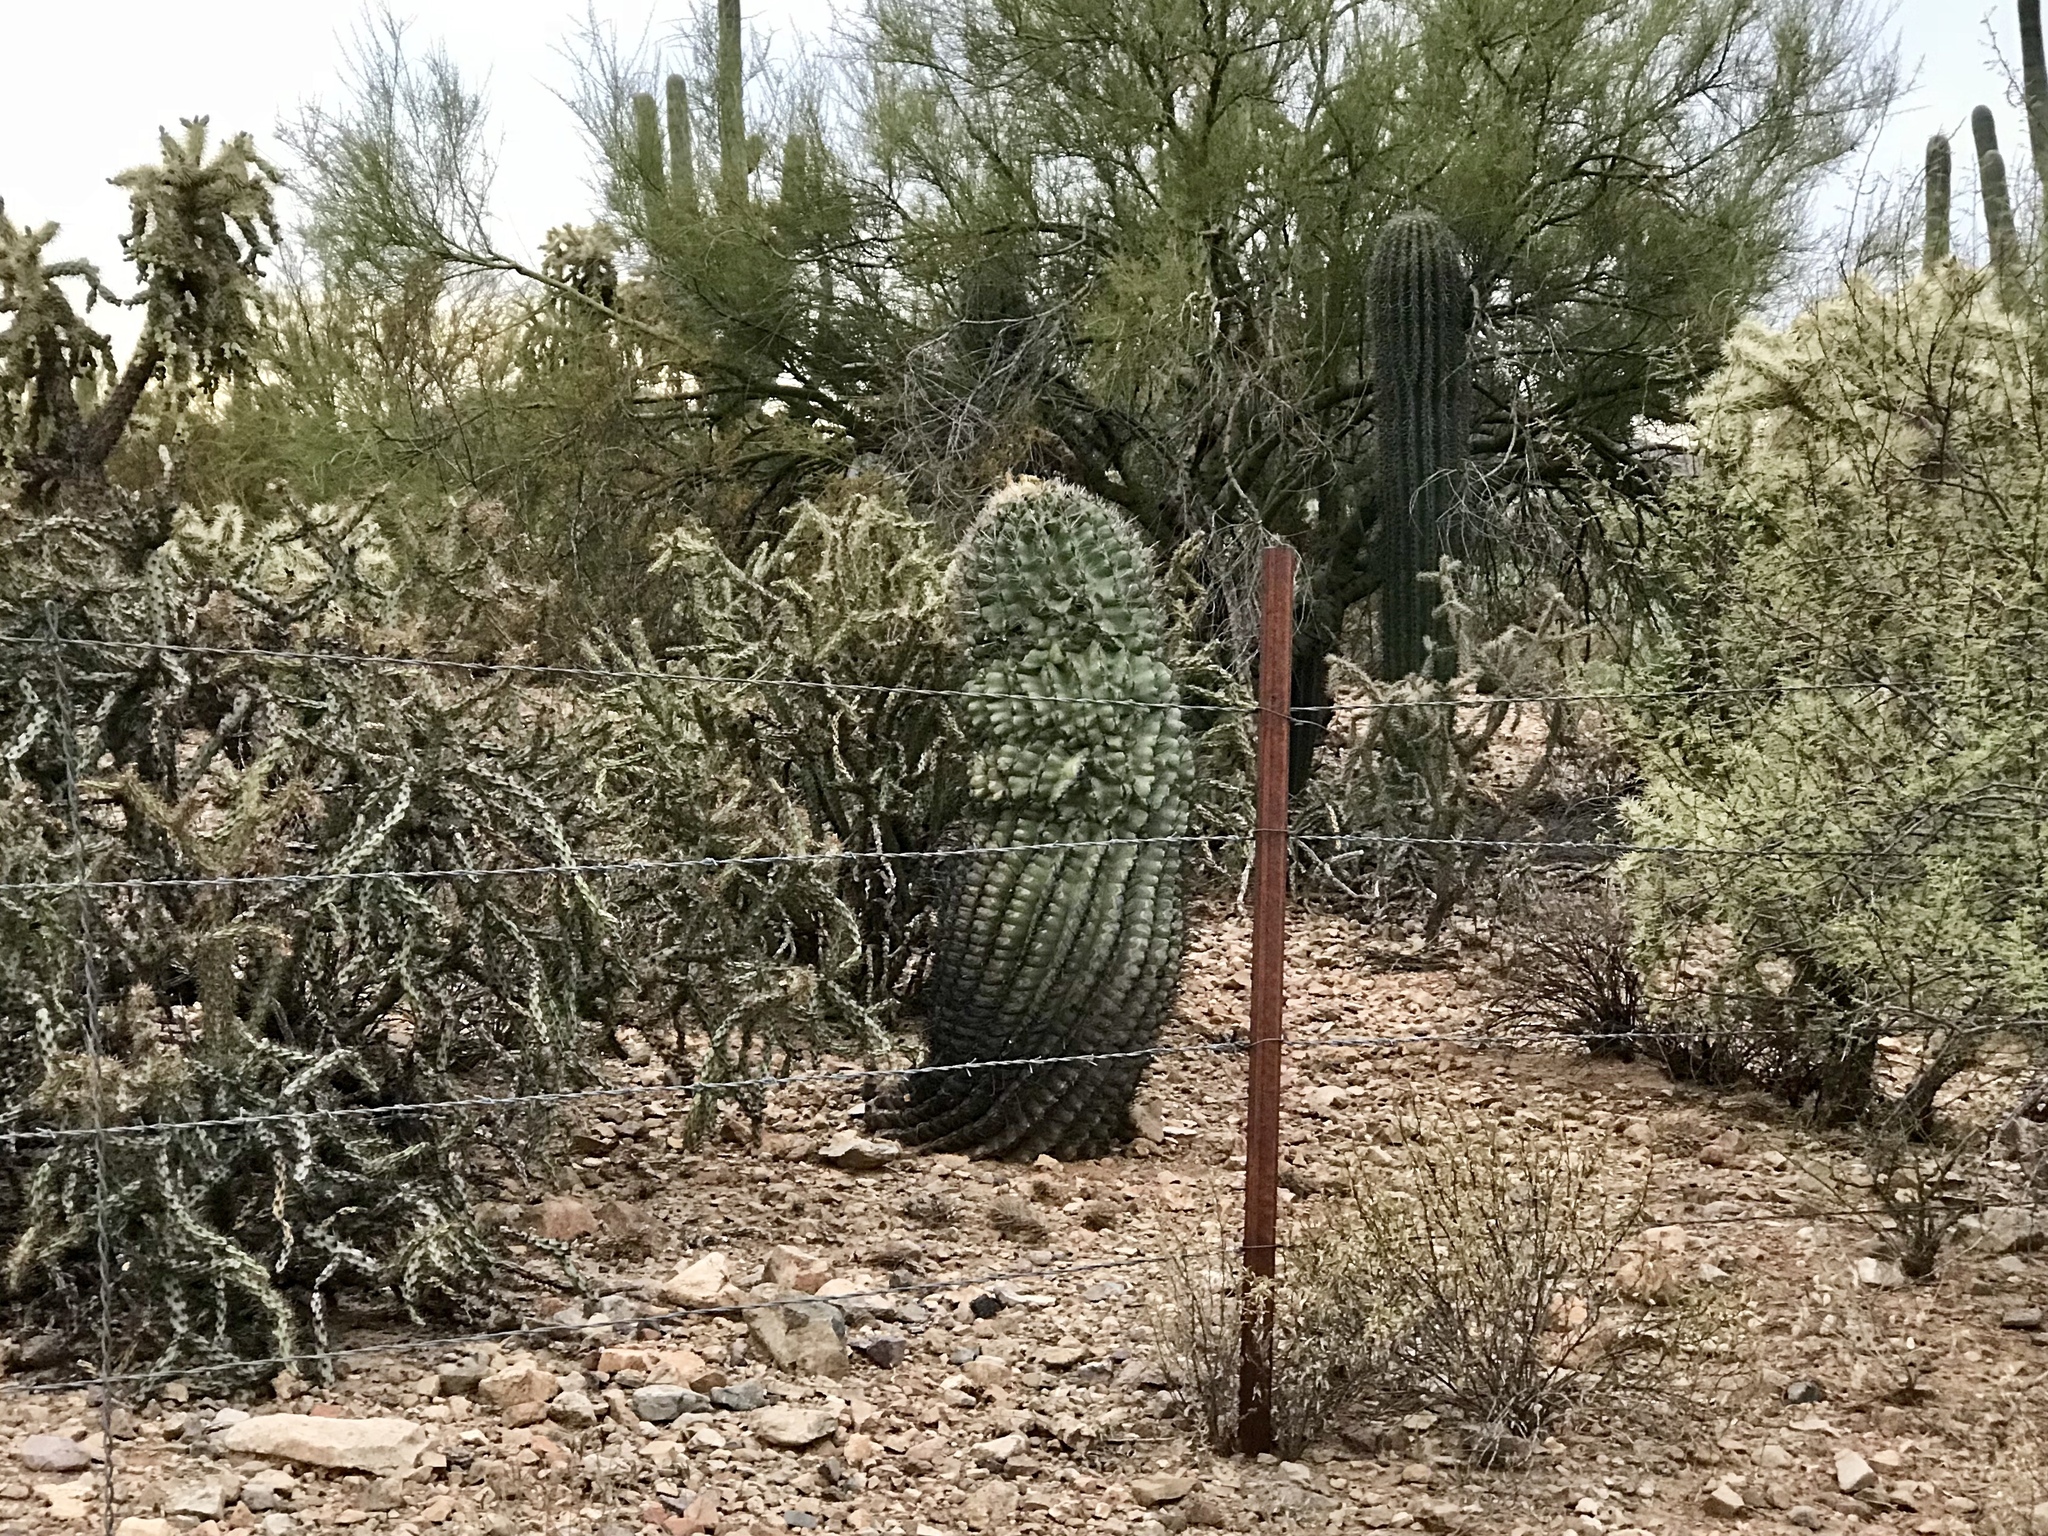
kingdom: Plantae
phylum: Tracheophyta
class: Magnoliopsida
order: Caryophyllales
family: Cactaceae
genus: Ferocactus
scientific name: Ferocactus wislizeni
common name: Candy barrel cactus
